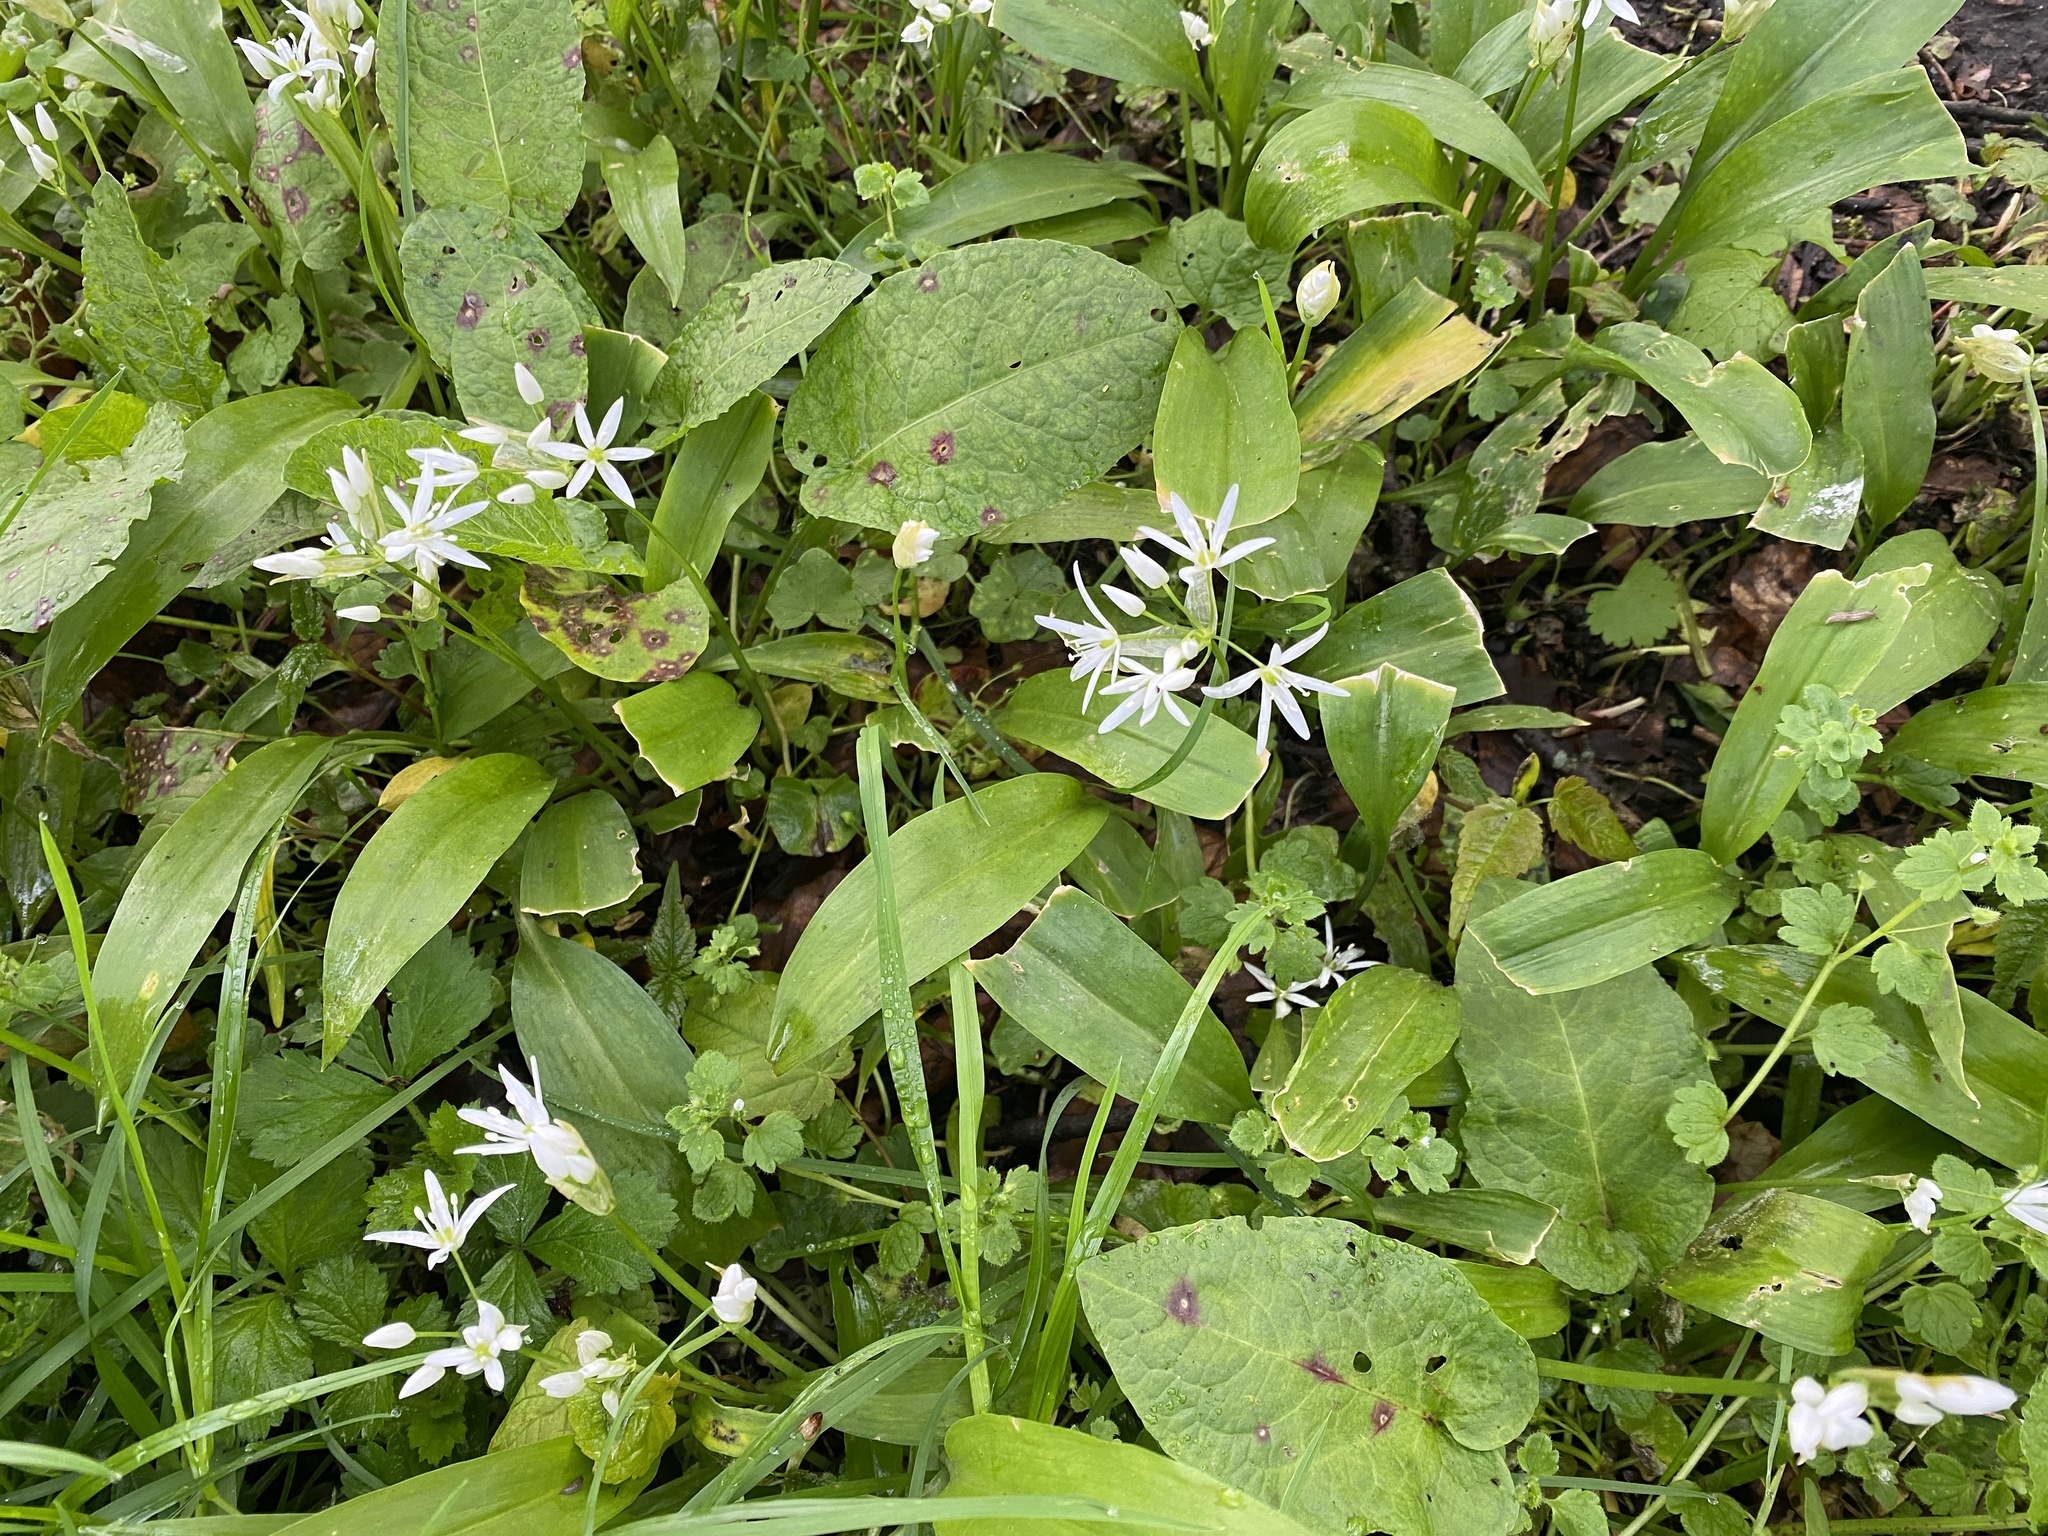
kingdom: Plantae
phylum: Tracheophyta
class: Liliopsida
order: Asparagales
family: Amaryllidaceae
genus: Allium
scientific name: Allium ursinum
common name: Ramsons
